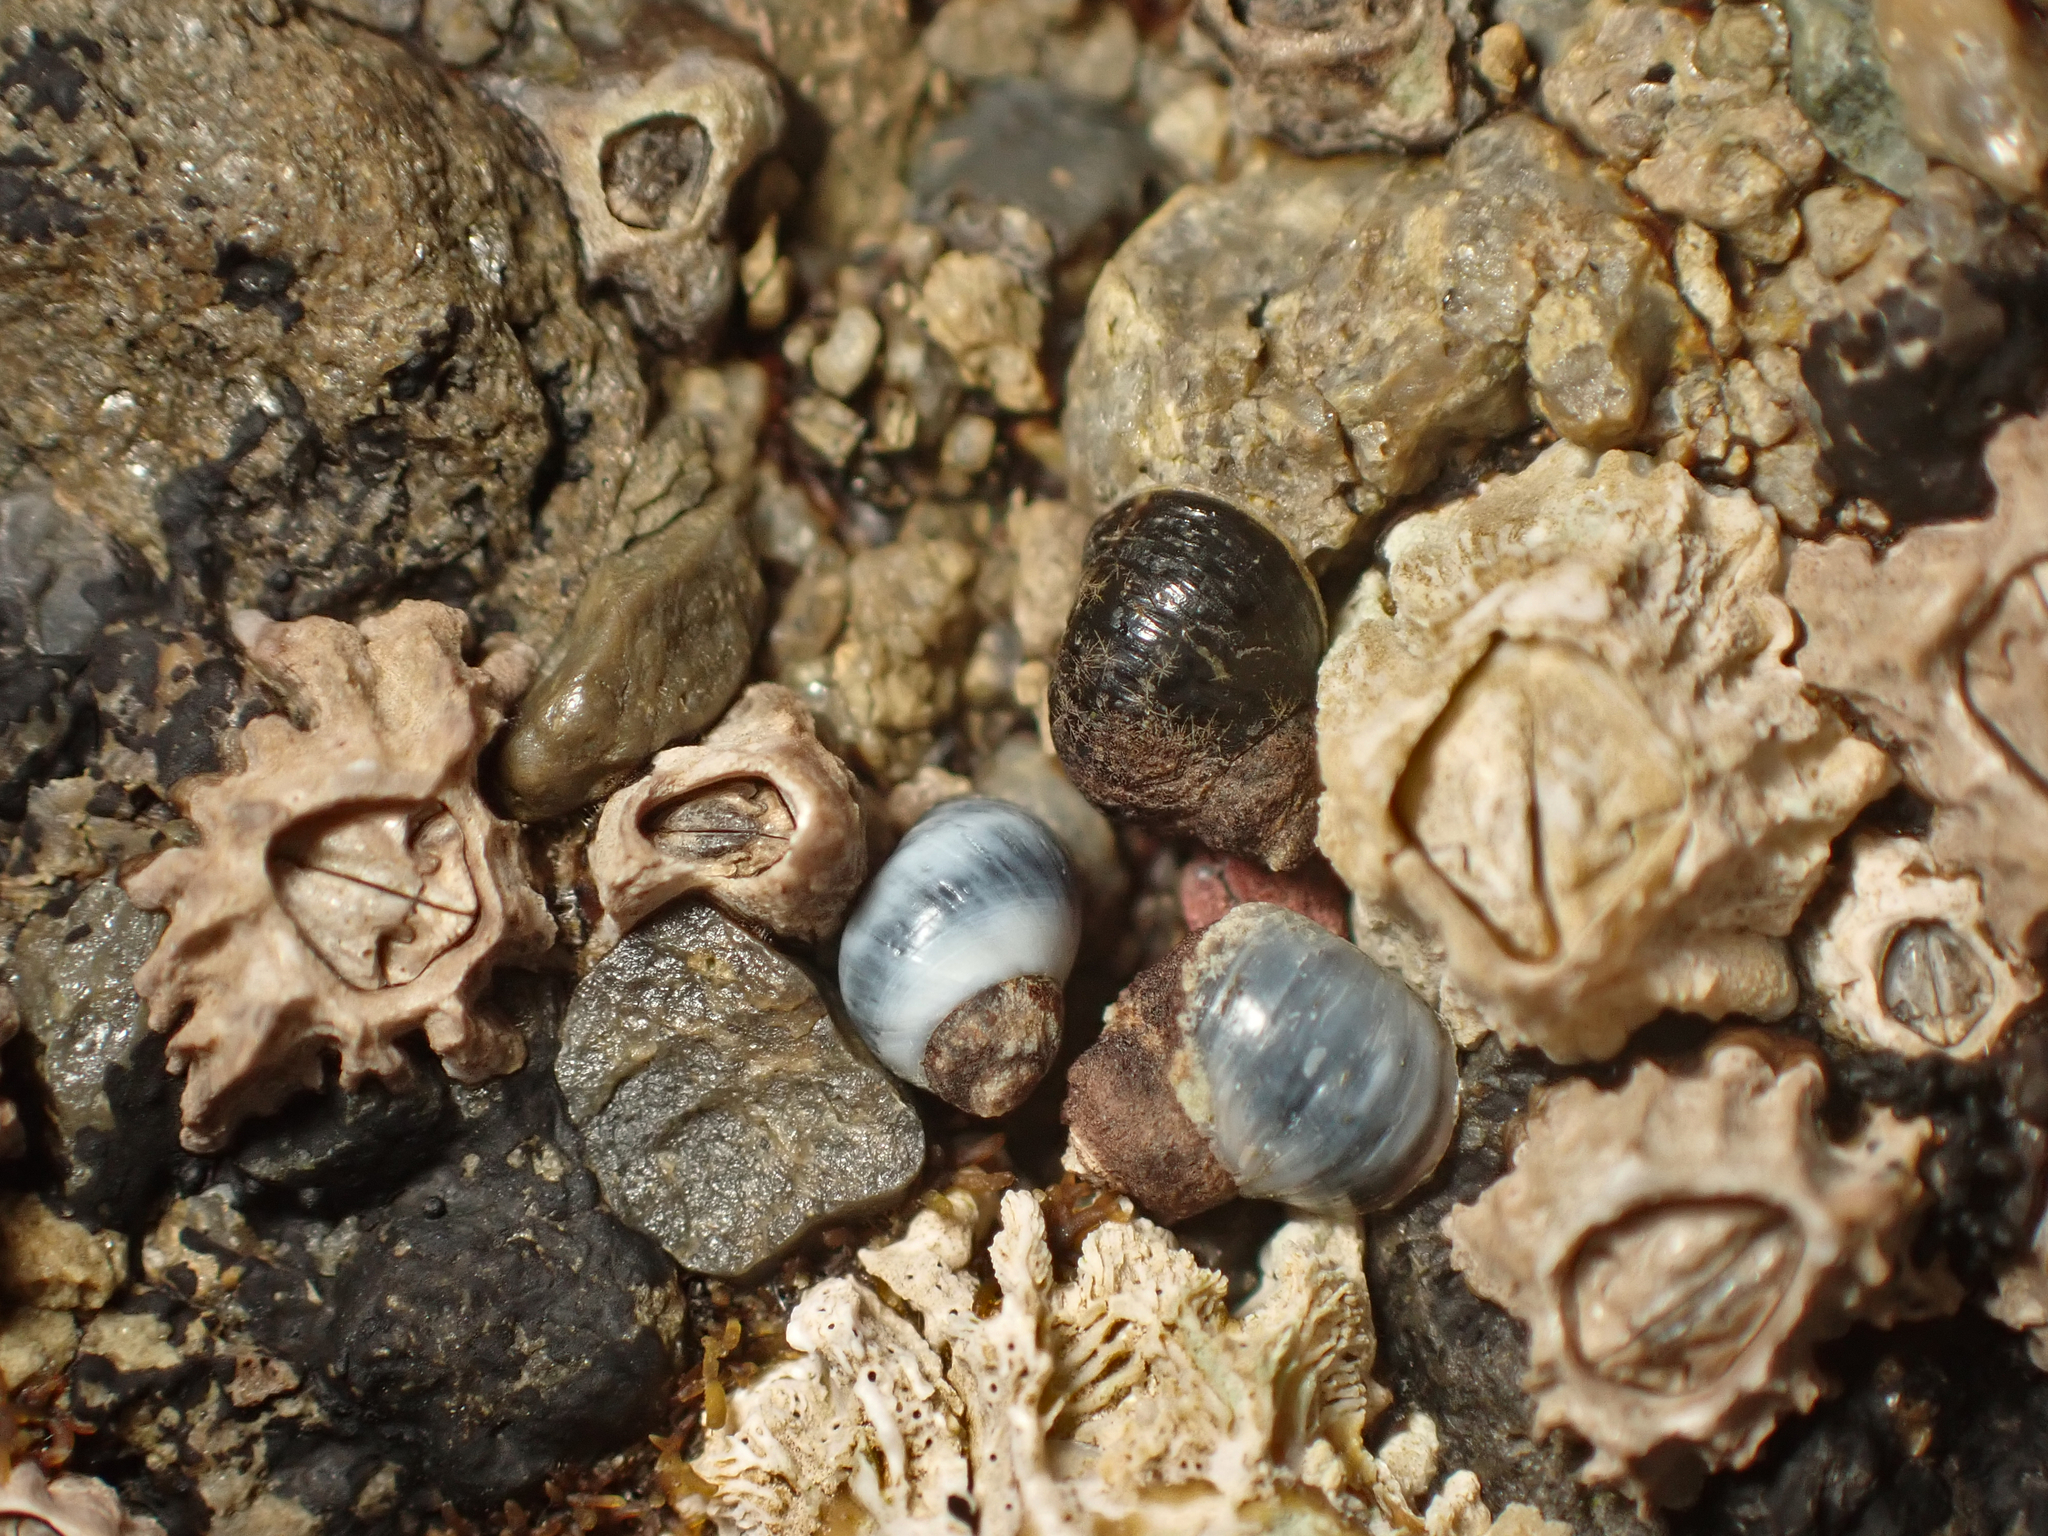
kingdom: Animalia
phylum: Mollusca
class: Gastropoda
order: Littorinimorpha
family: Littorinidae
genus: Austrolittorina
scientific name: Austrolittorina cincta
